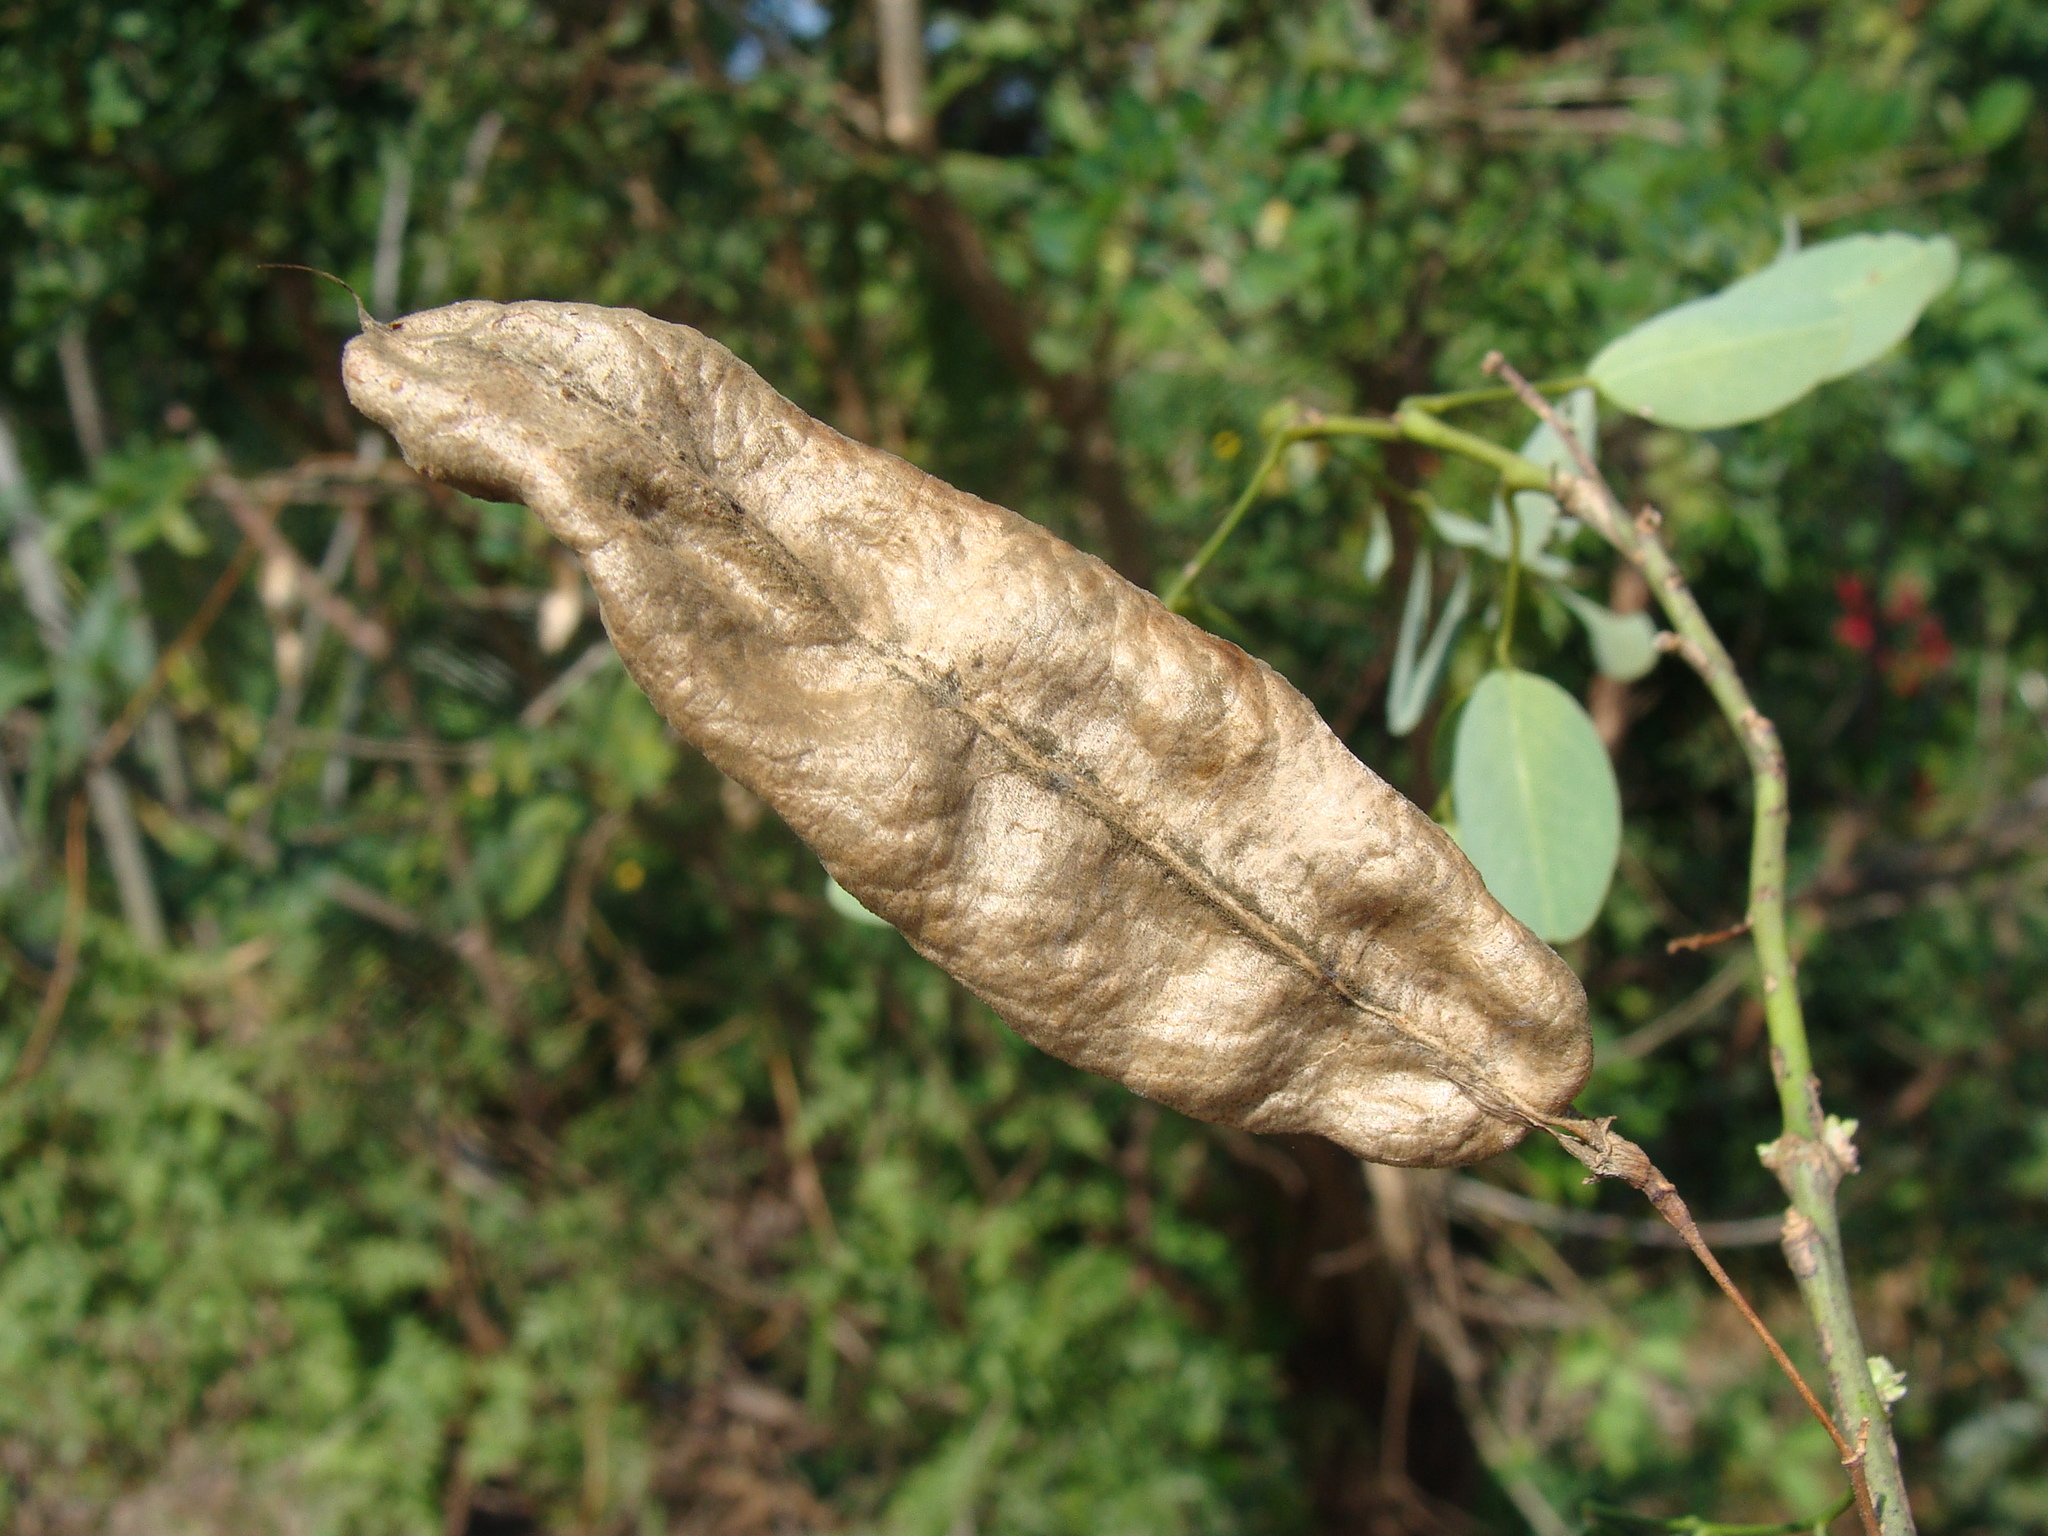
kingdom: Plantae
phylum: Tracheophyta
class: Magnoliopsida
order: Fabales
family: Fabaceae
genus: Diphysa
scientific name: Diphysa americana
